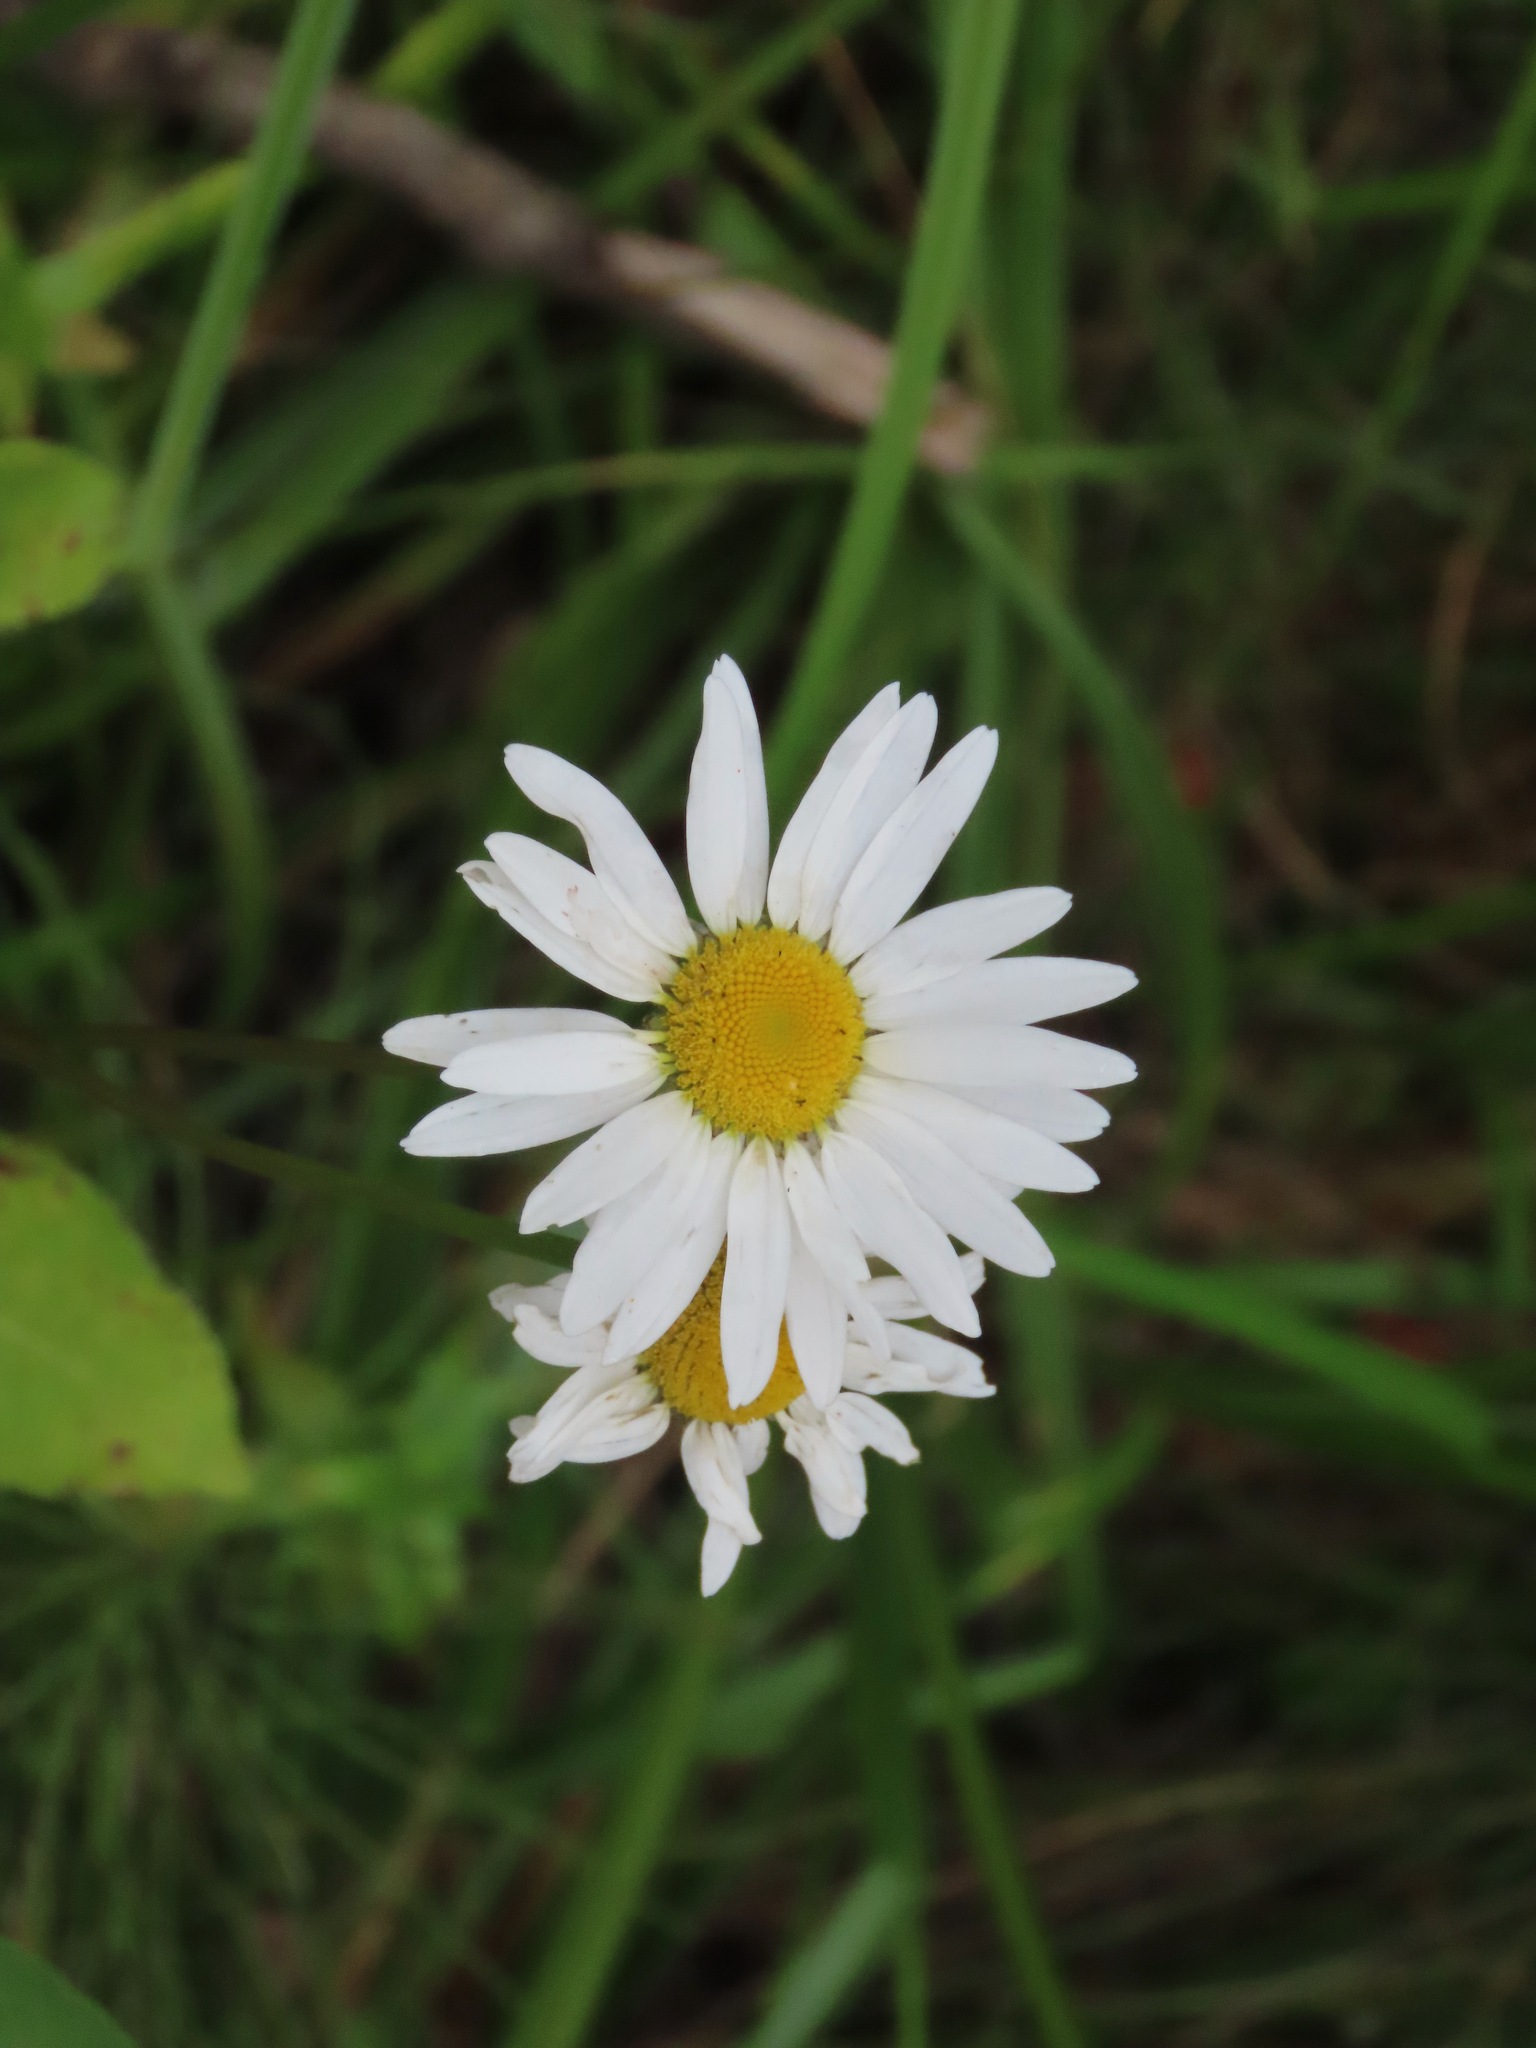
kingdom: Plantae
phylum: Tracheophyta
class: Magnoliopsida
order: Asterales
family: Asteraceae
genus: Leucanthemum
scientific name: Leucanthemum vulgare
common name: Oxeye daisy
